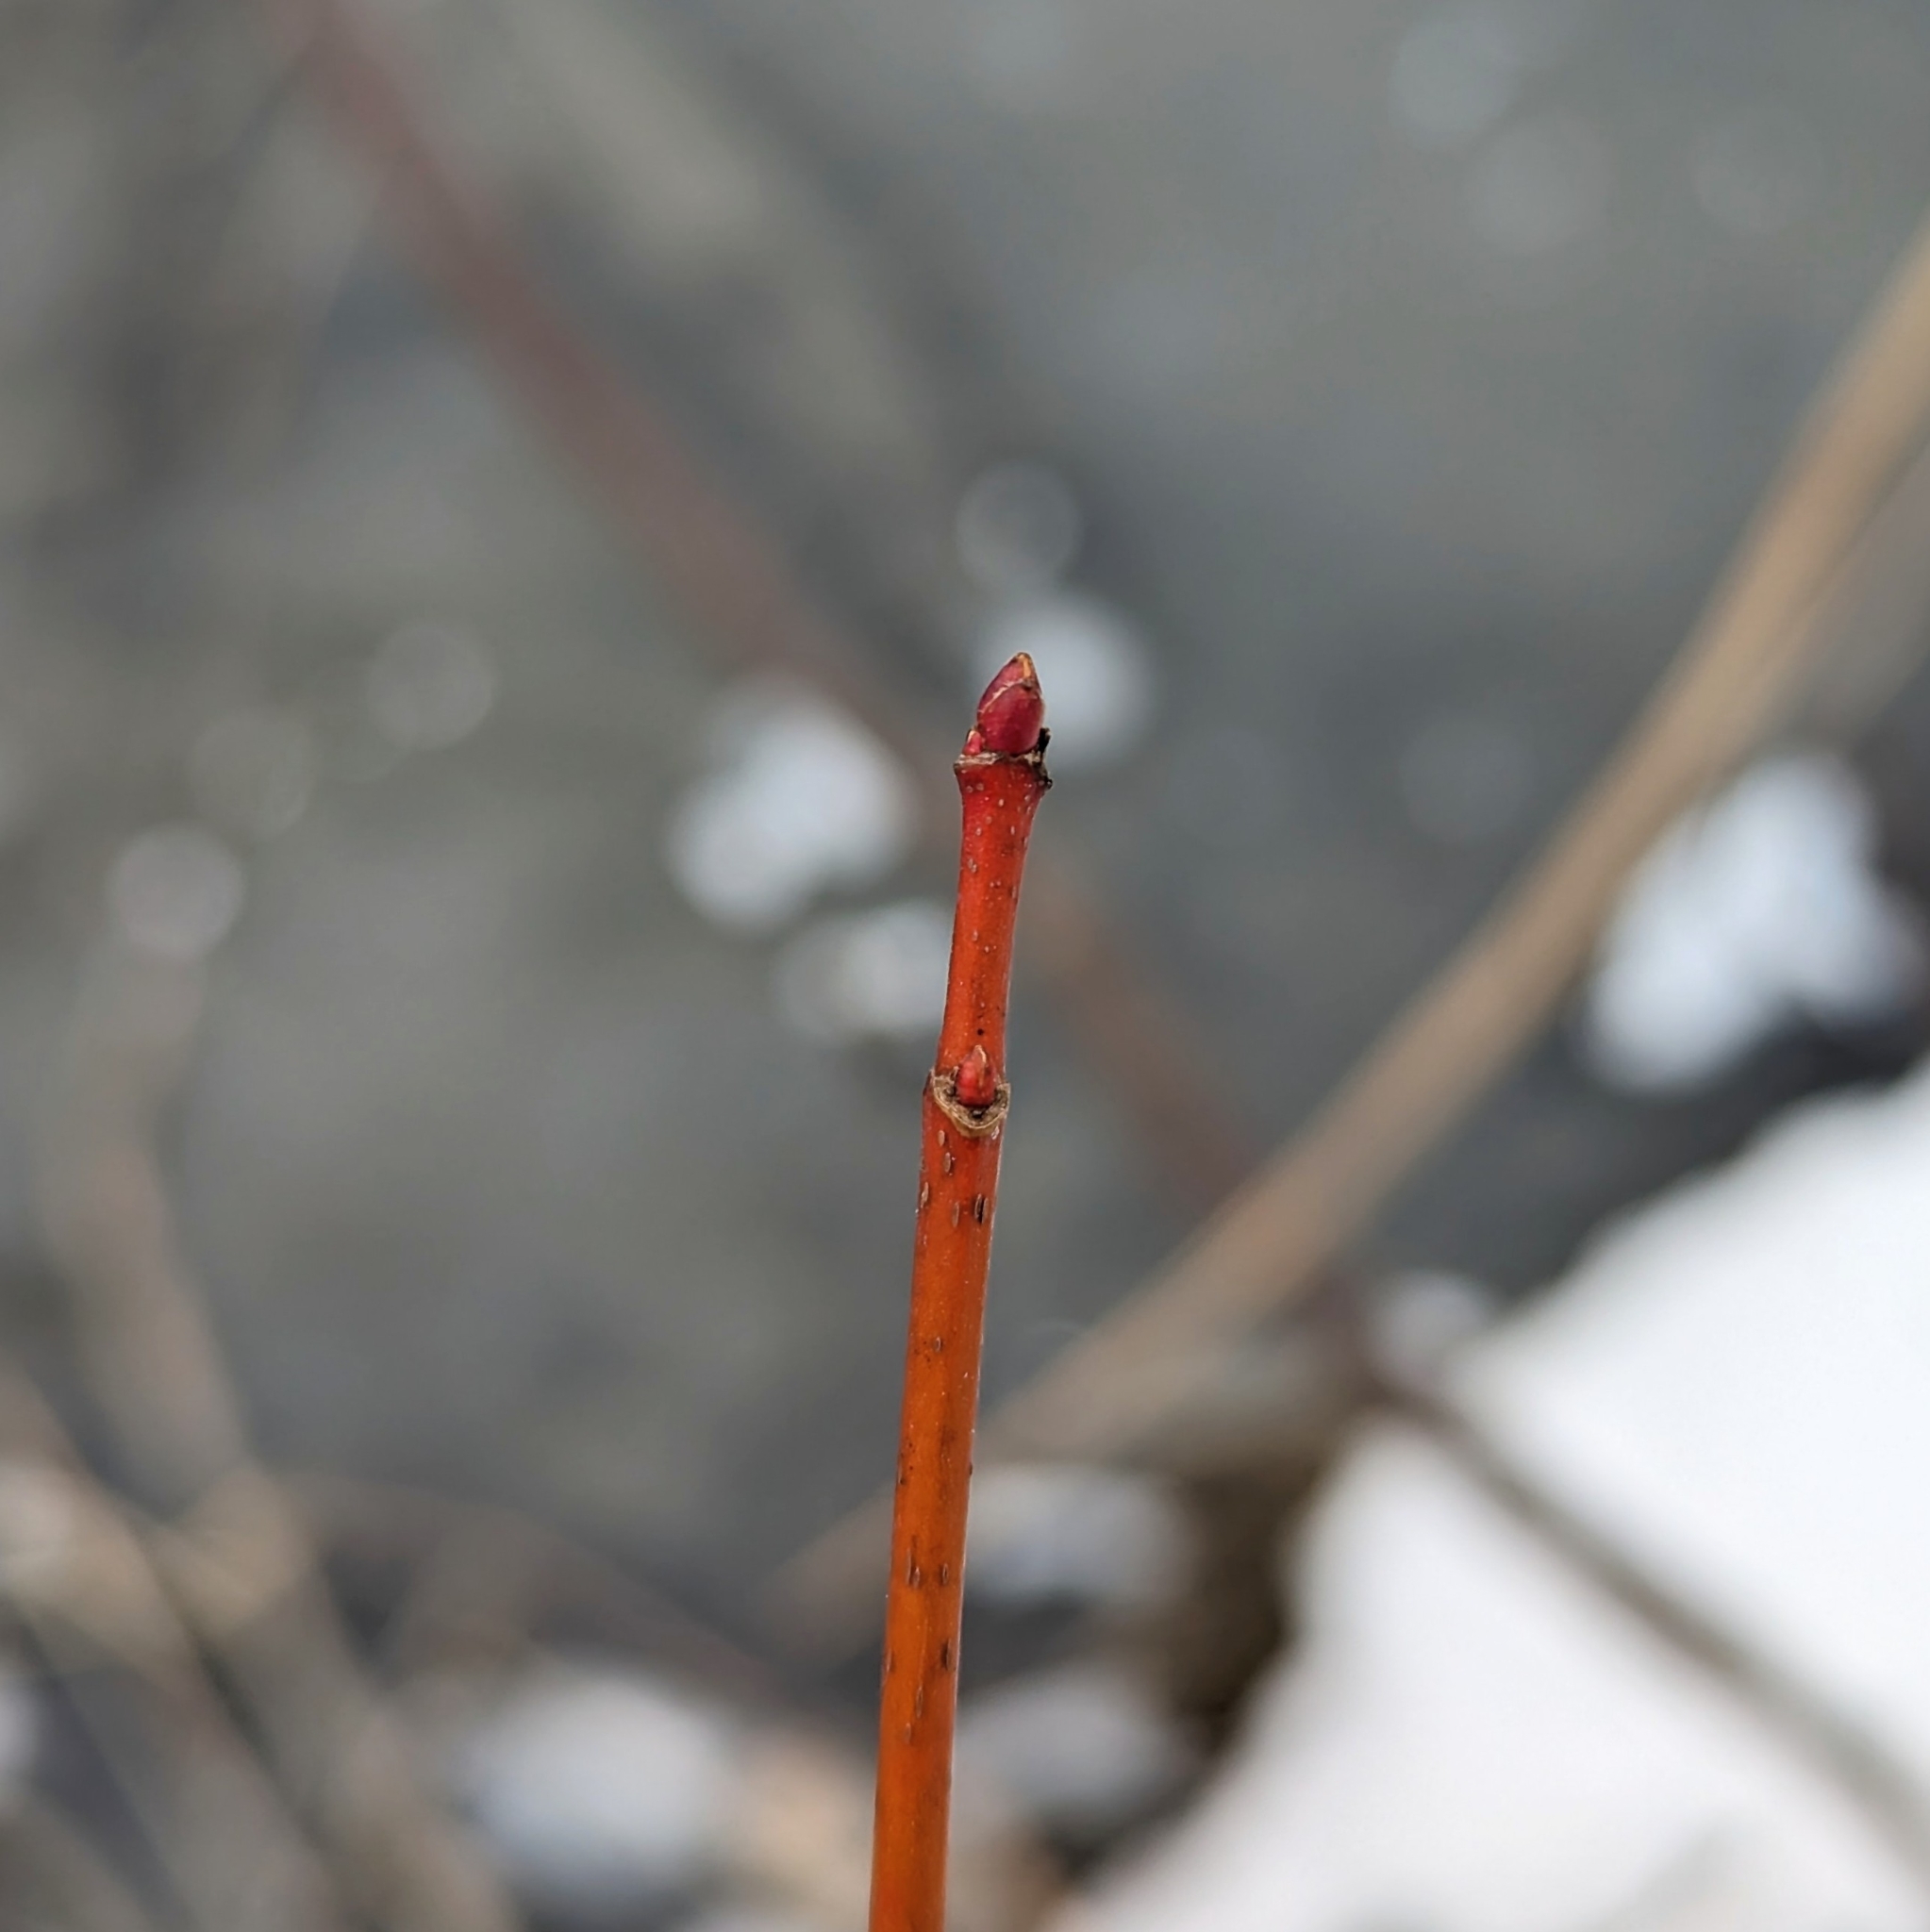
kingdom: Plantae
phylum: Tracheophyta
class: Magnoliopsida
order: Gentianales
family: Rubiaceae
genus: Rubia
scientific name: Rubia
